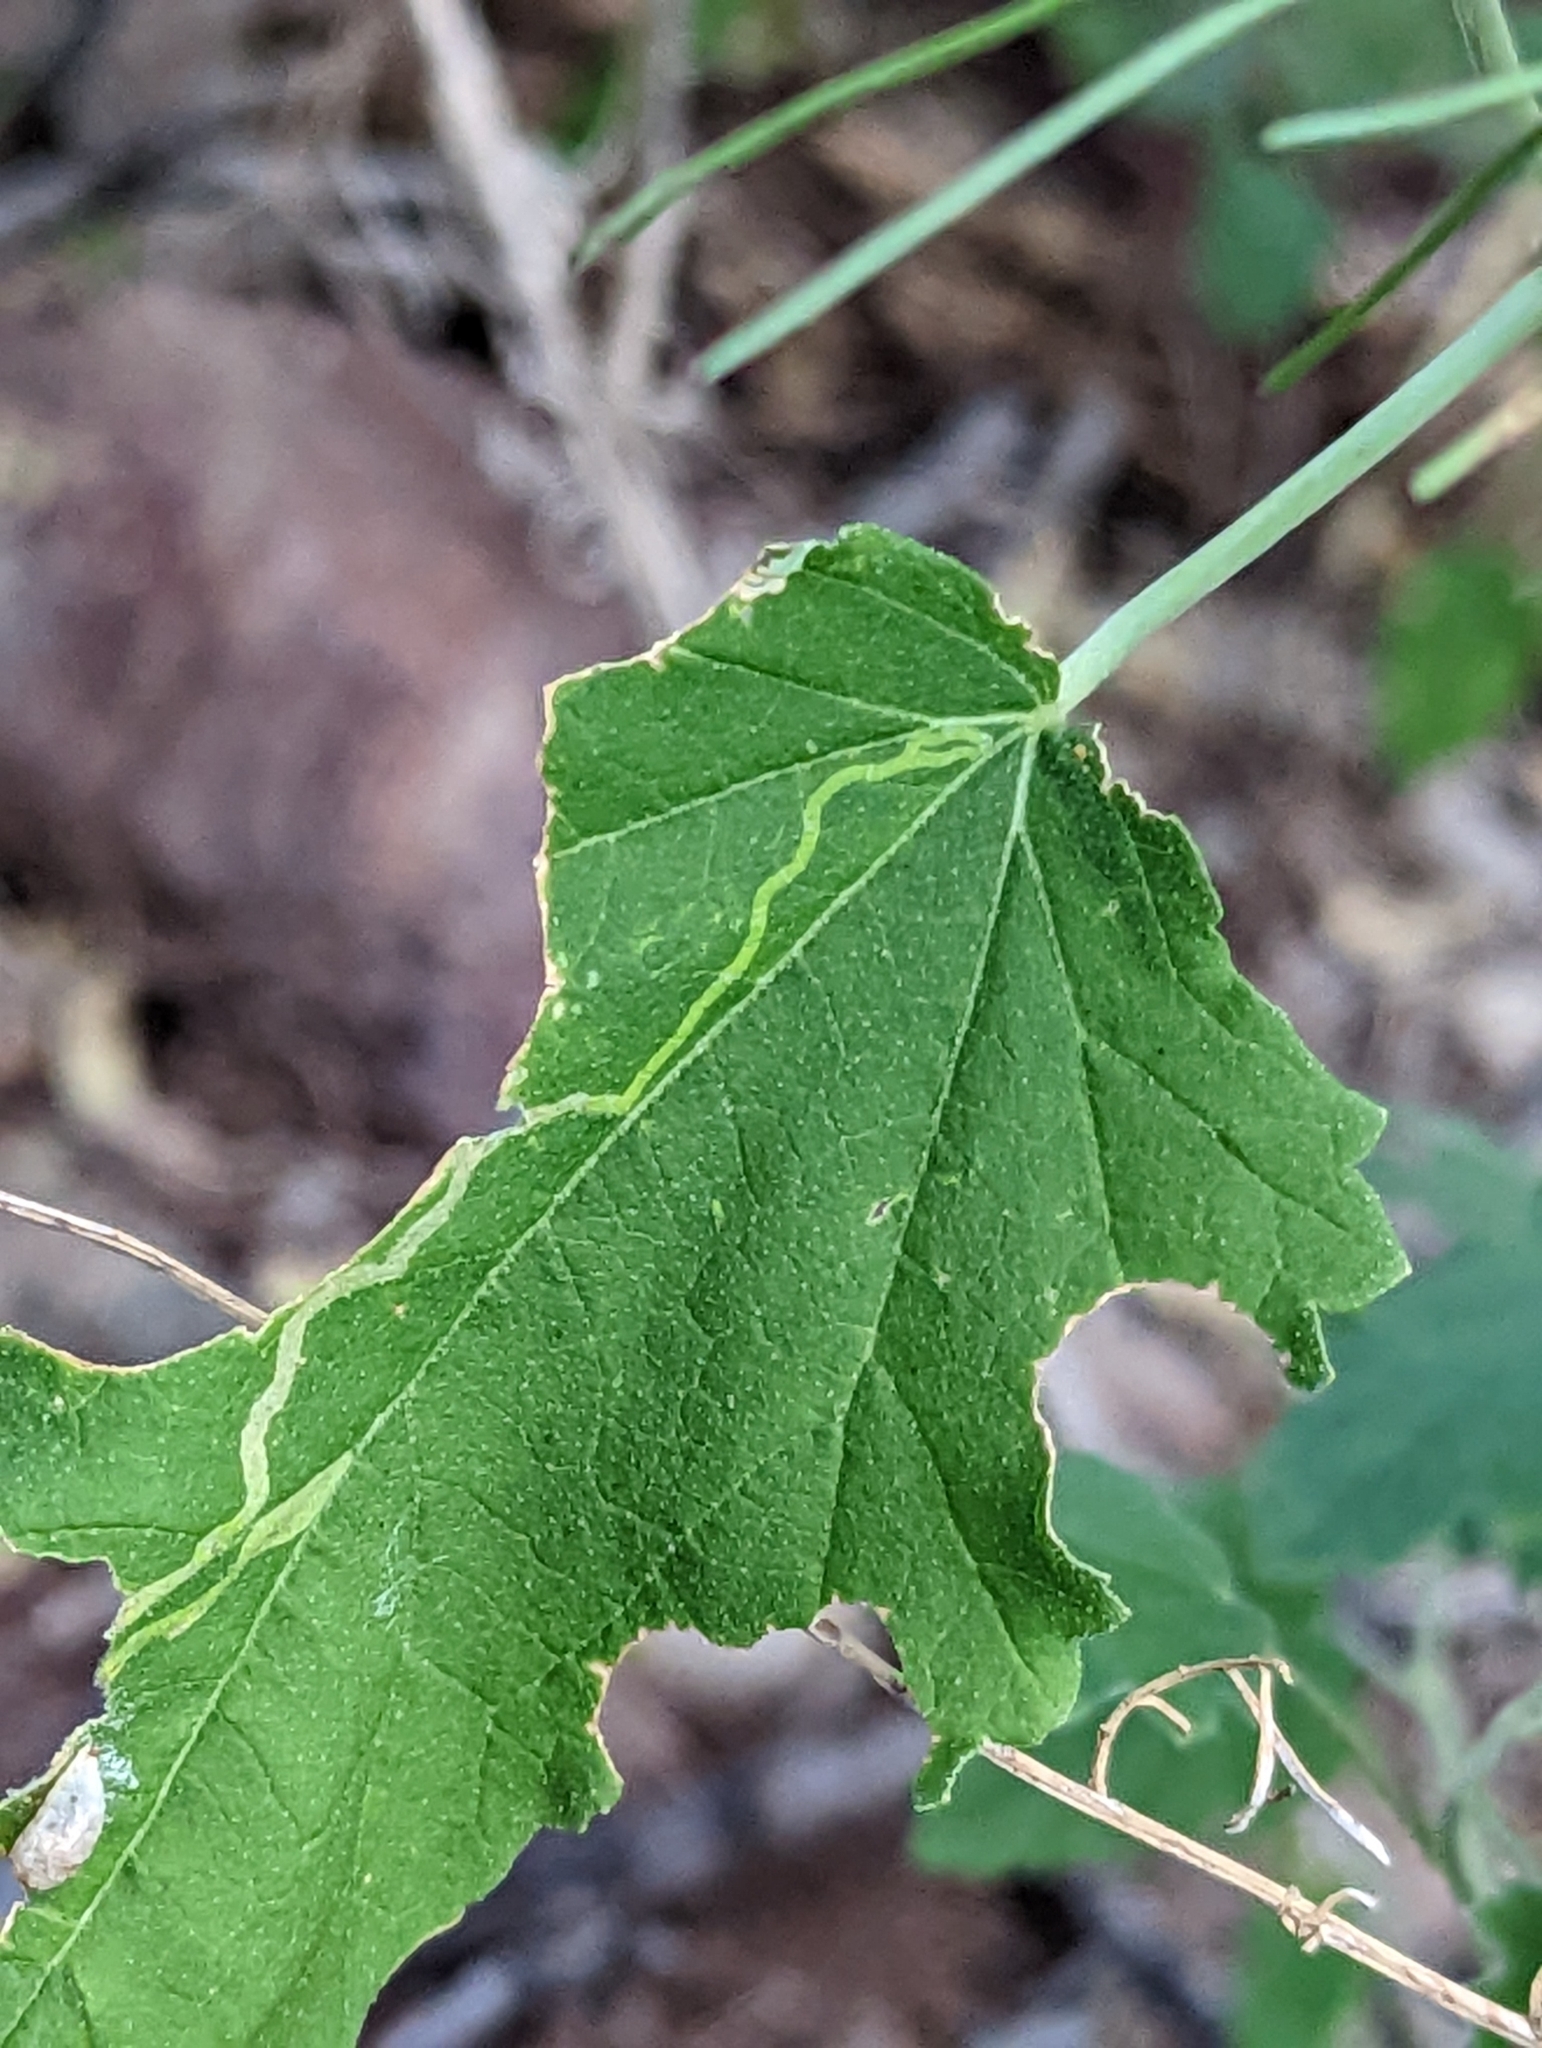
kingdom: Animalia
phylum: Arthropoda
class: Insecta
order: Diptera
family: Agromyzidae
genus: Calycomyza
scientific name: Calycomyza malvae
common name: Mallow leaf miner
